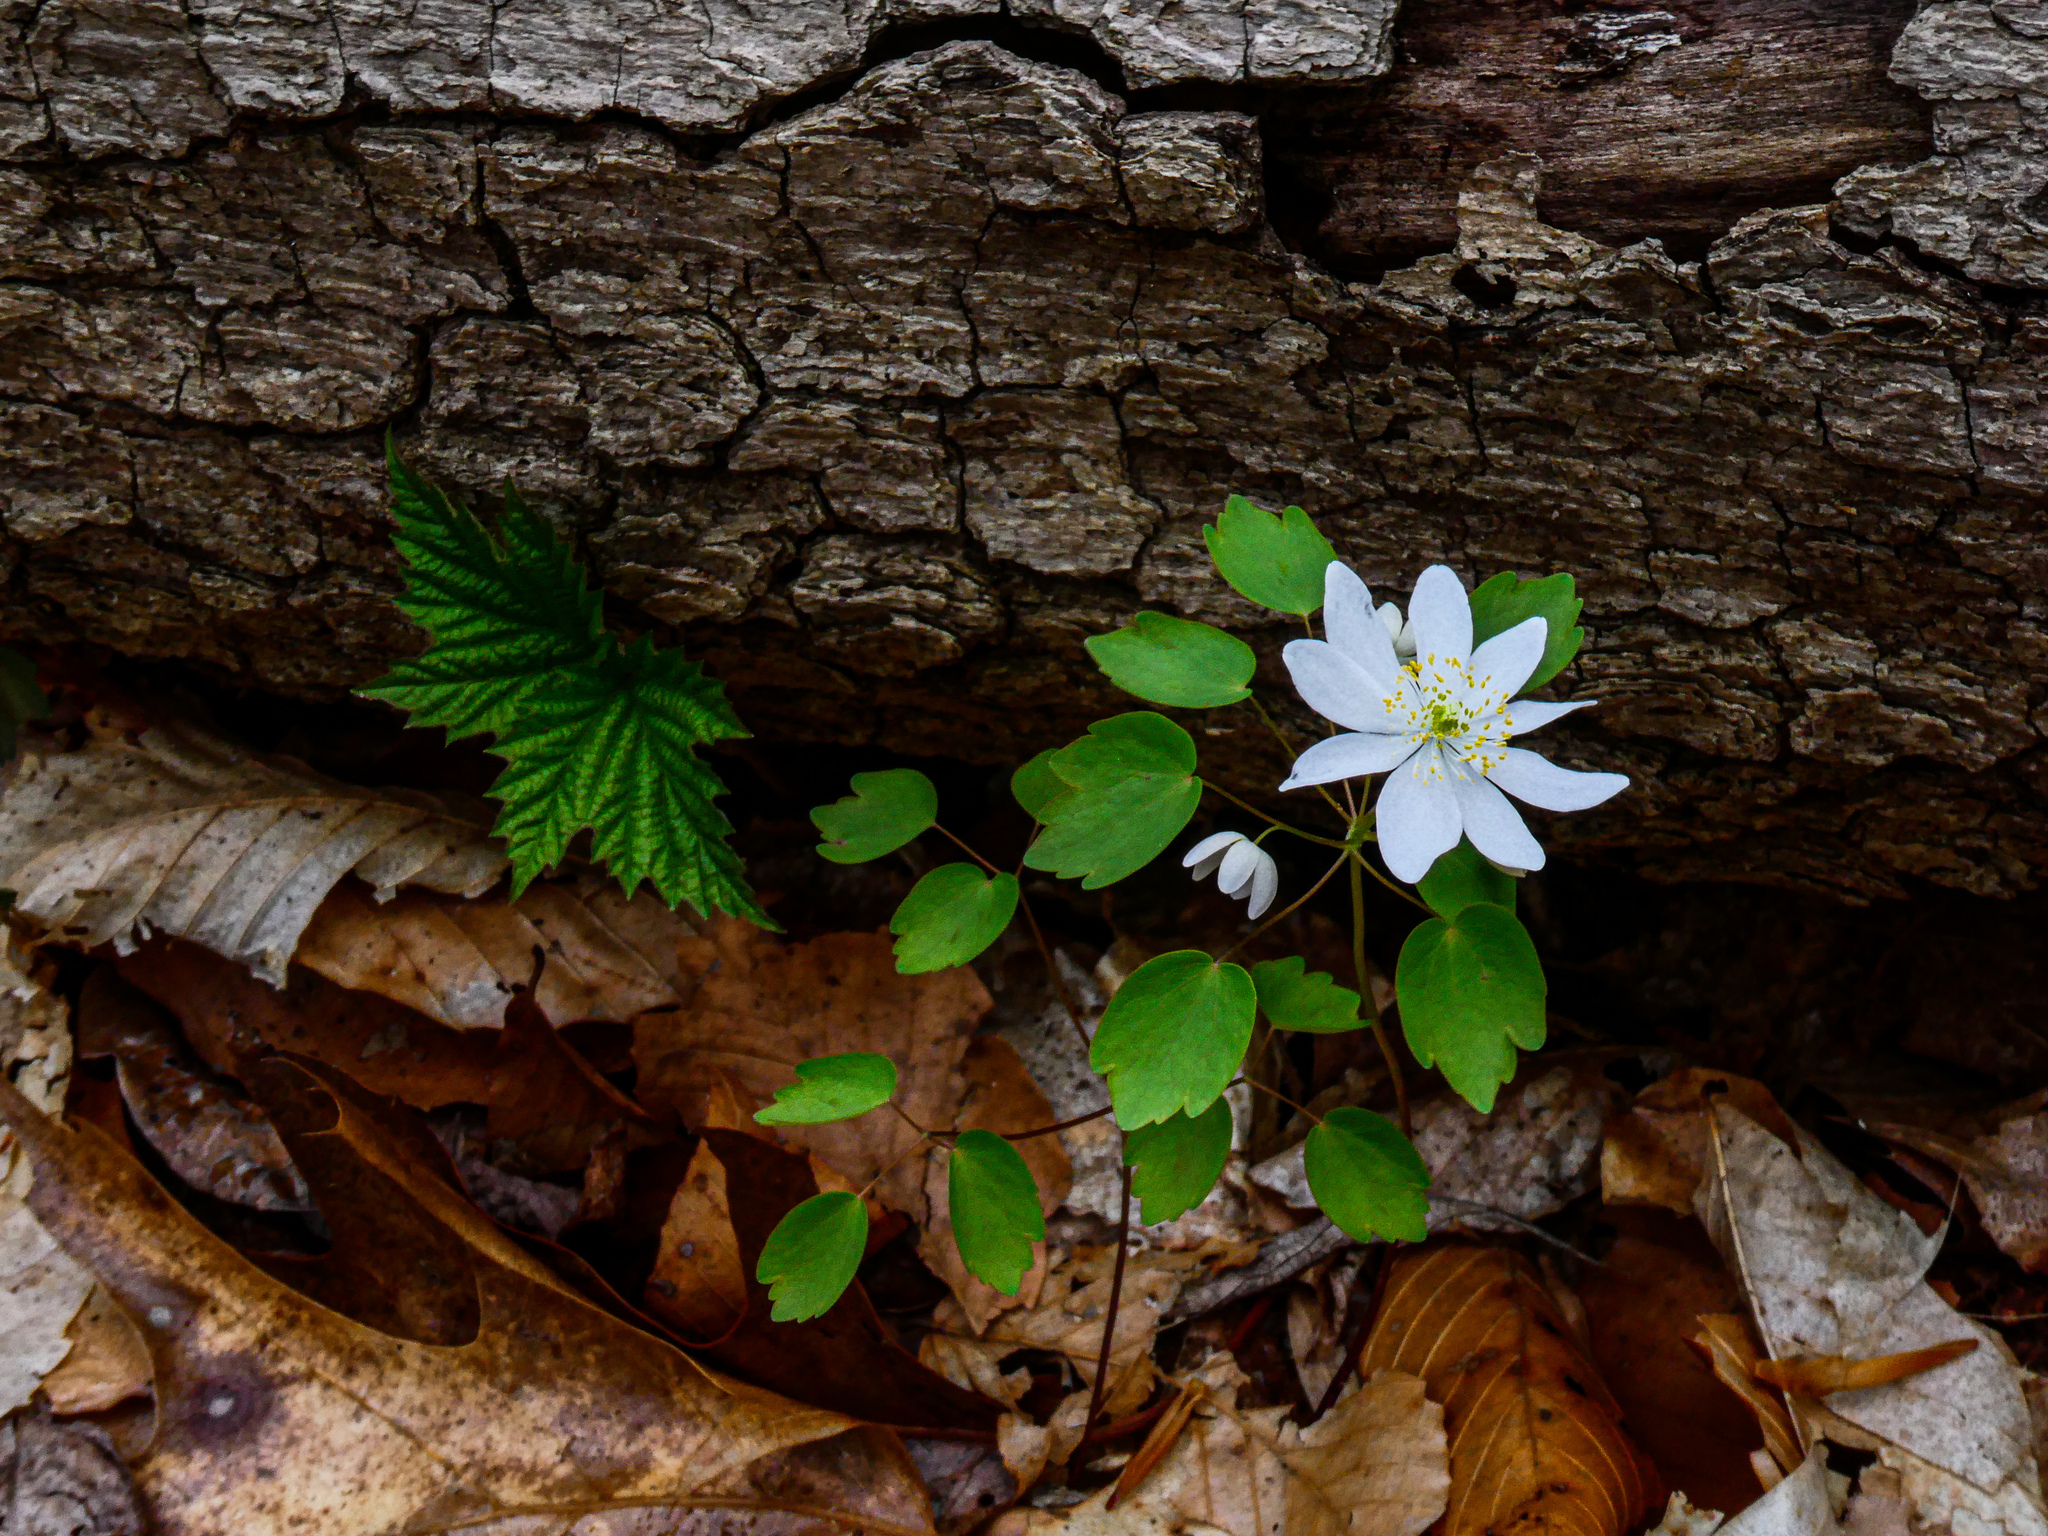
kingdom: Plantae
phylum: Tracheophyta
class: Magnoliopsida
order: Ranunculales
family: Ranunculaceae
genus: Thalictrum
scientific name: Thalictrum thalictroides
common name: Rue-anemone
